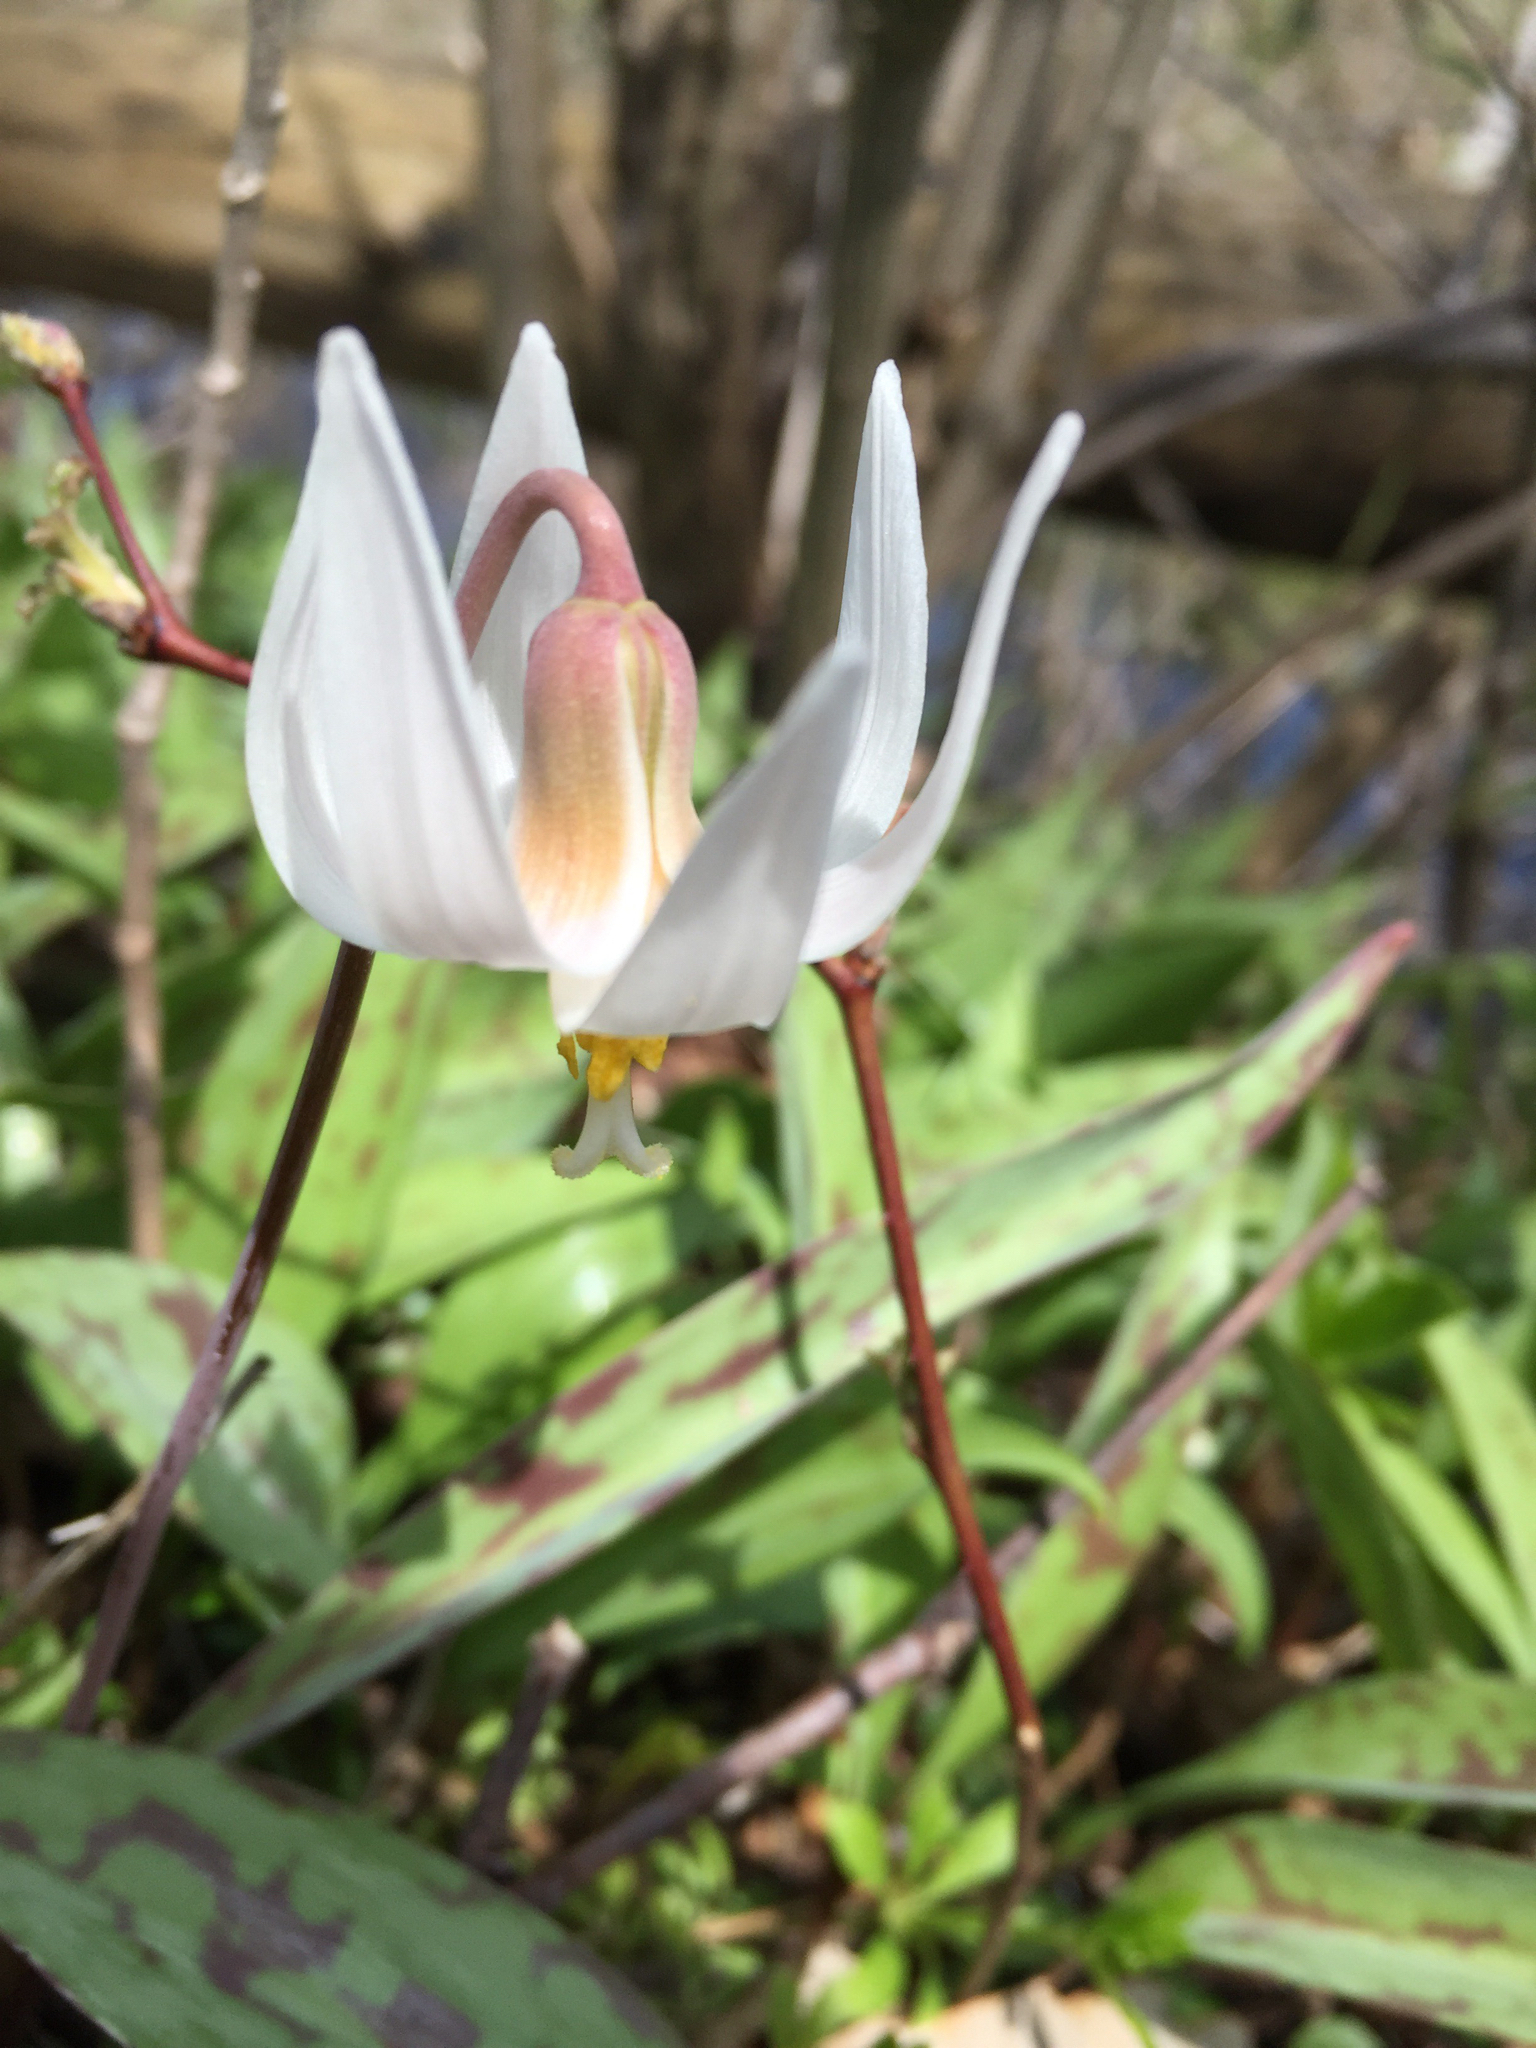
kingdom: Plantae
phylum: Tracheophyta
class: Liliopsida
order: Liliales
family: Liliaceae
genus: Erythronium
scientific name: Erythronium albidum
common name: White trout-lily
